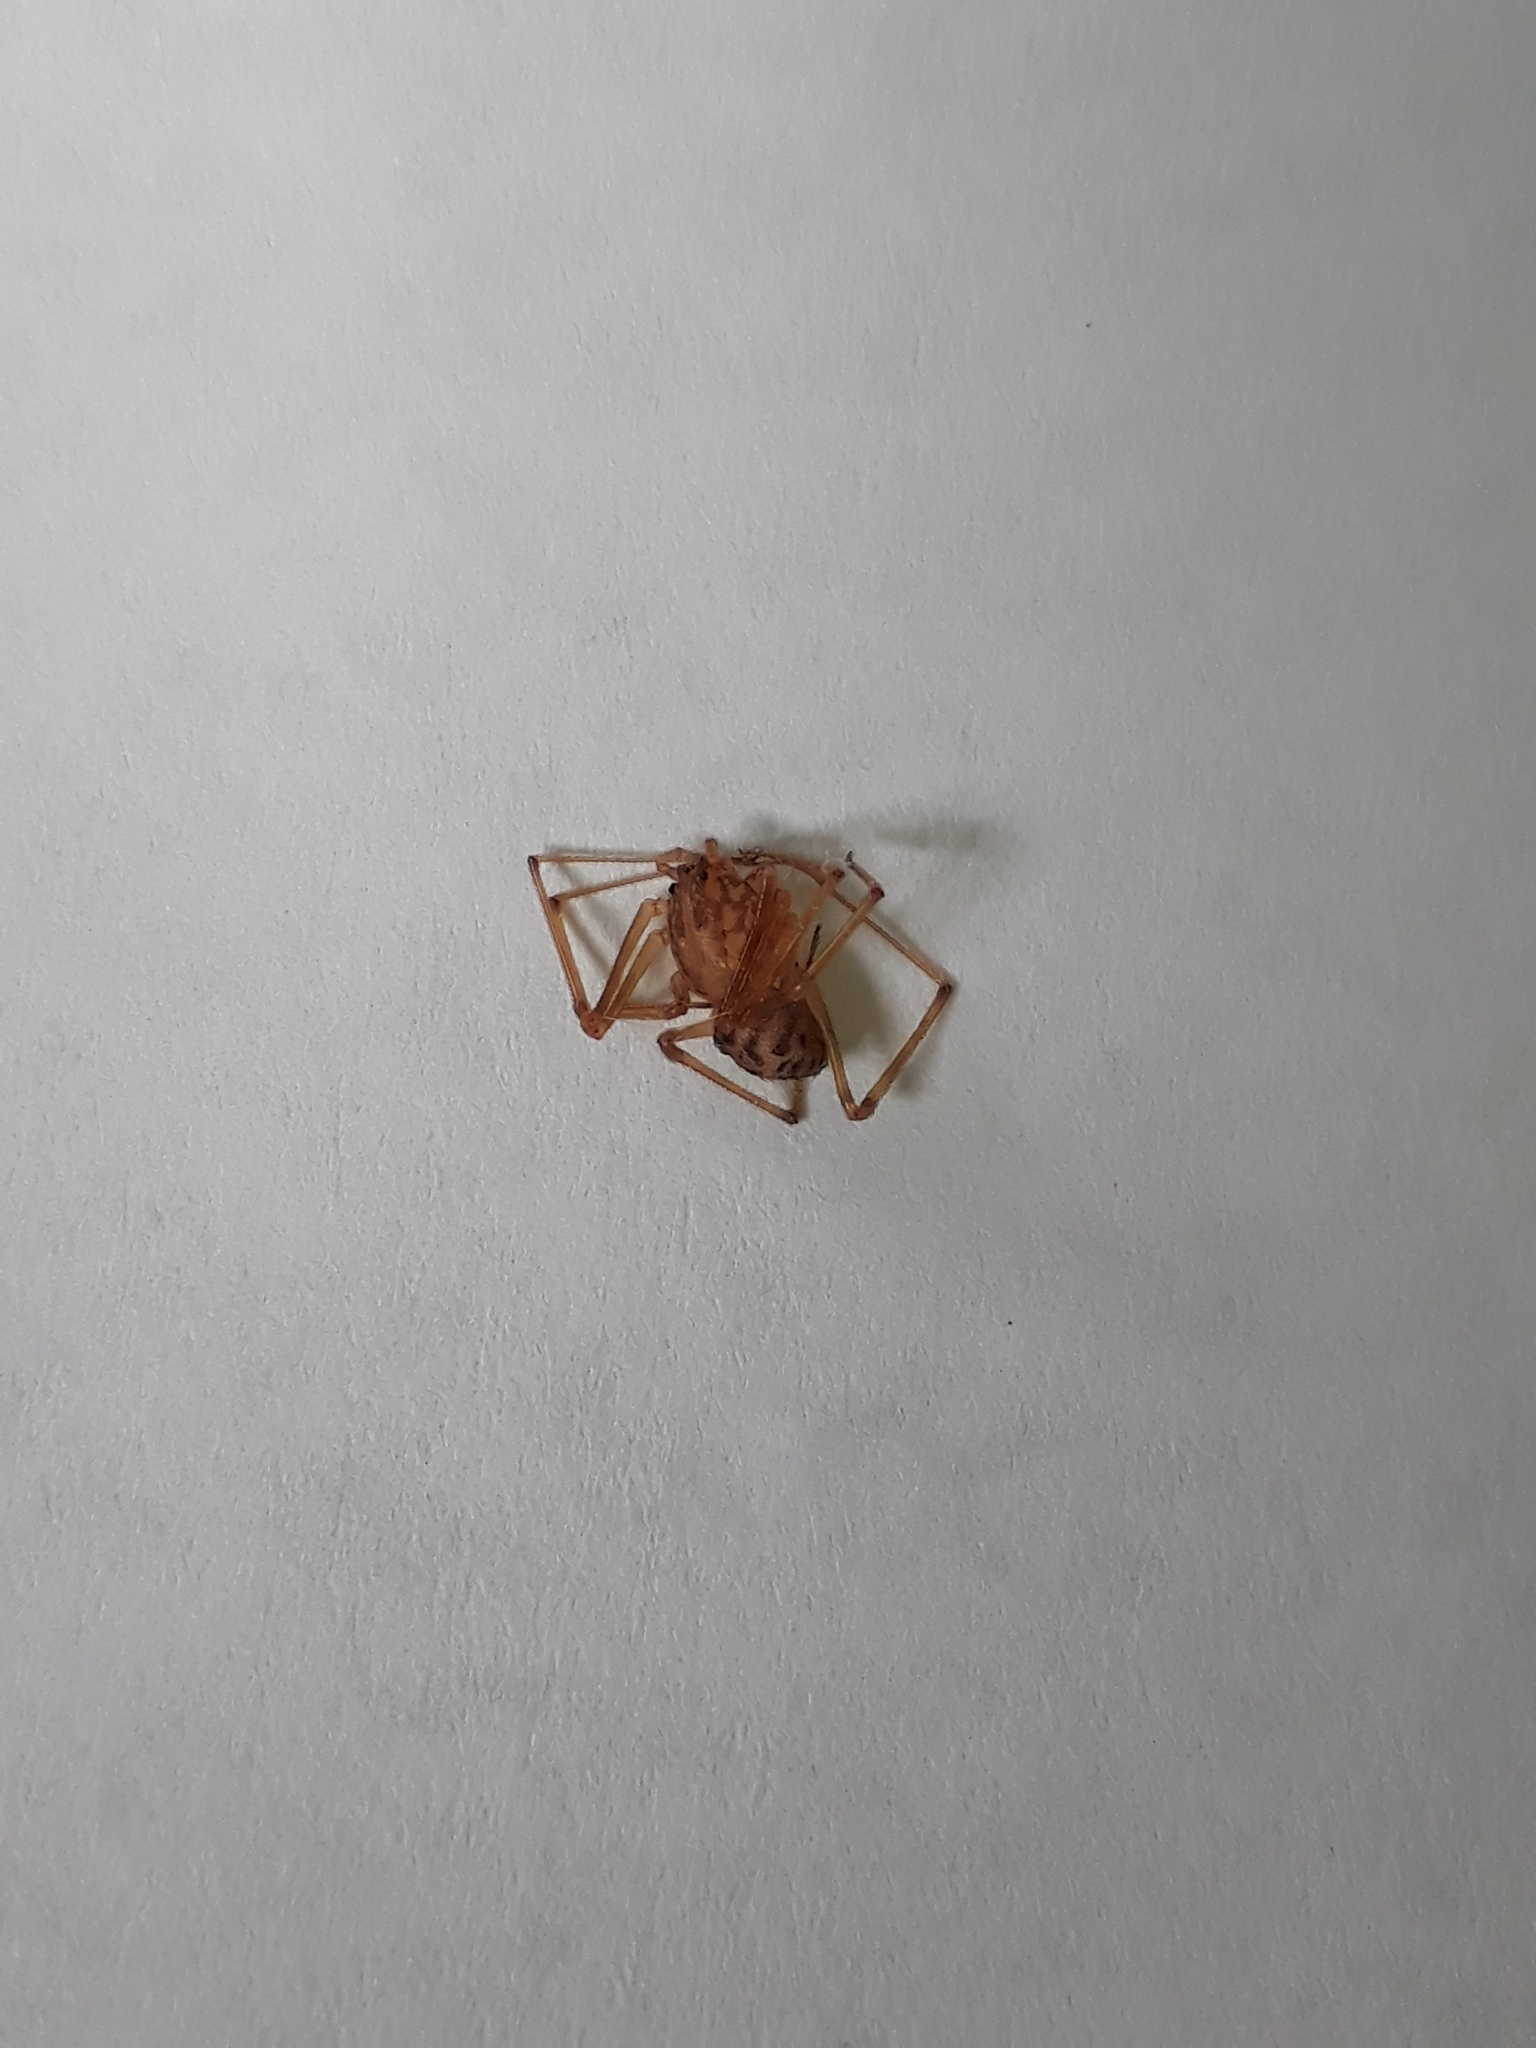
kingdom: Animalia
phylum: Arthropoda
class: Arachnida
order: Araneae
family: Scytodidae
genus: Scytodes
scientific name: Scytodes univittata
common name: Spitting spider
